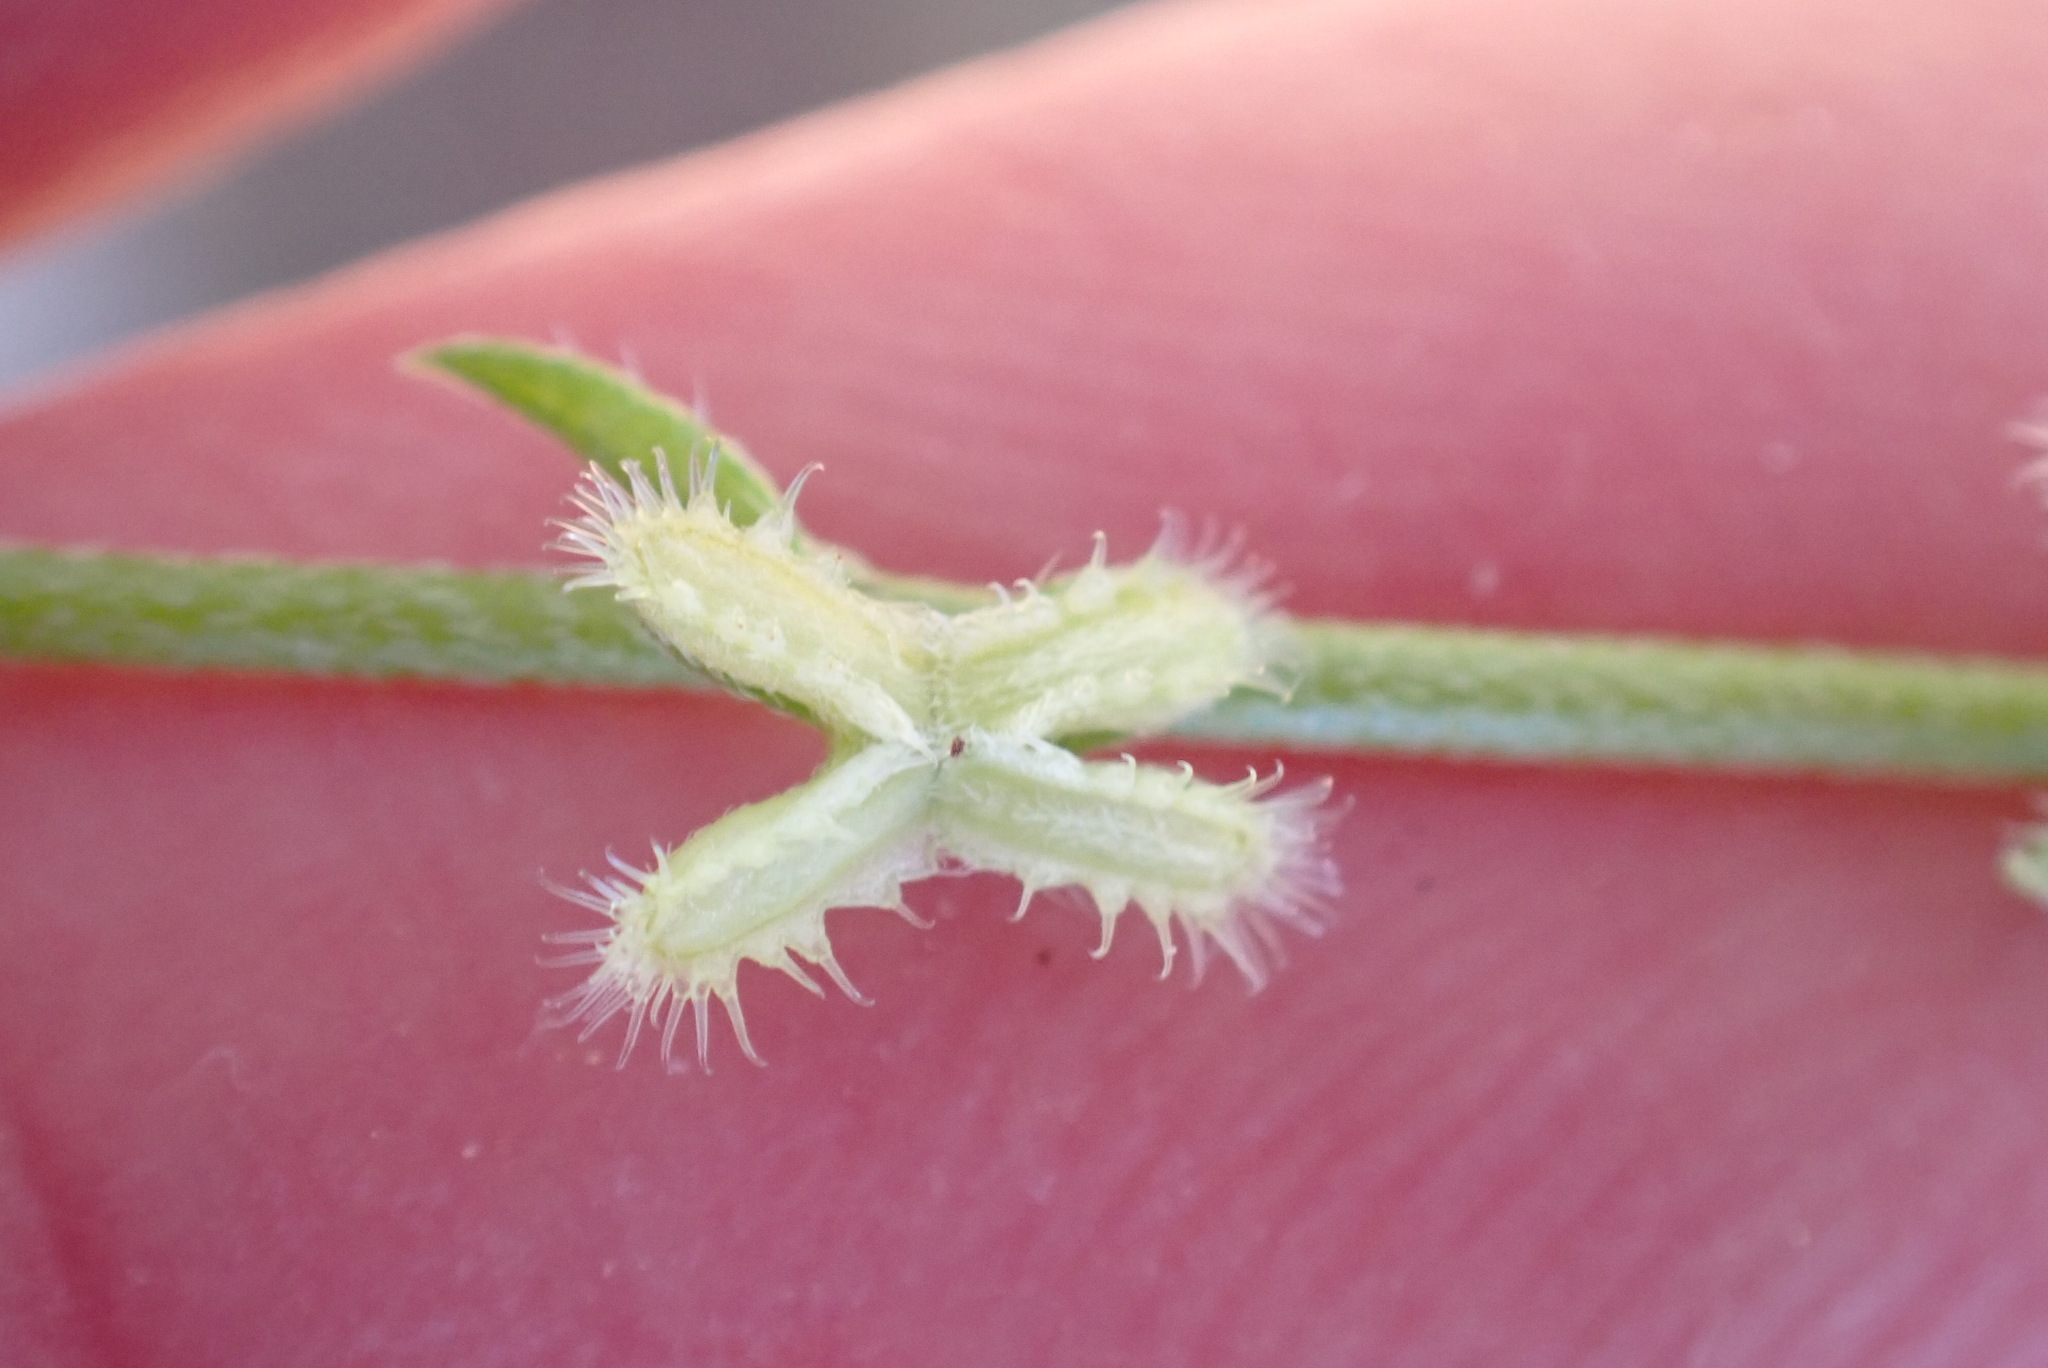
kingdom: Plantae
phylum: Tracheophyta
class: Magnoliopsida
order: Boraginales
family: Boraginaceae
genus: Pectocarya
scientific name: Pectocarya linearis
